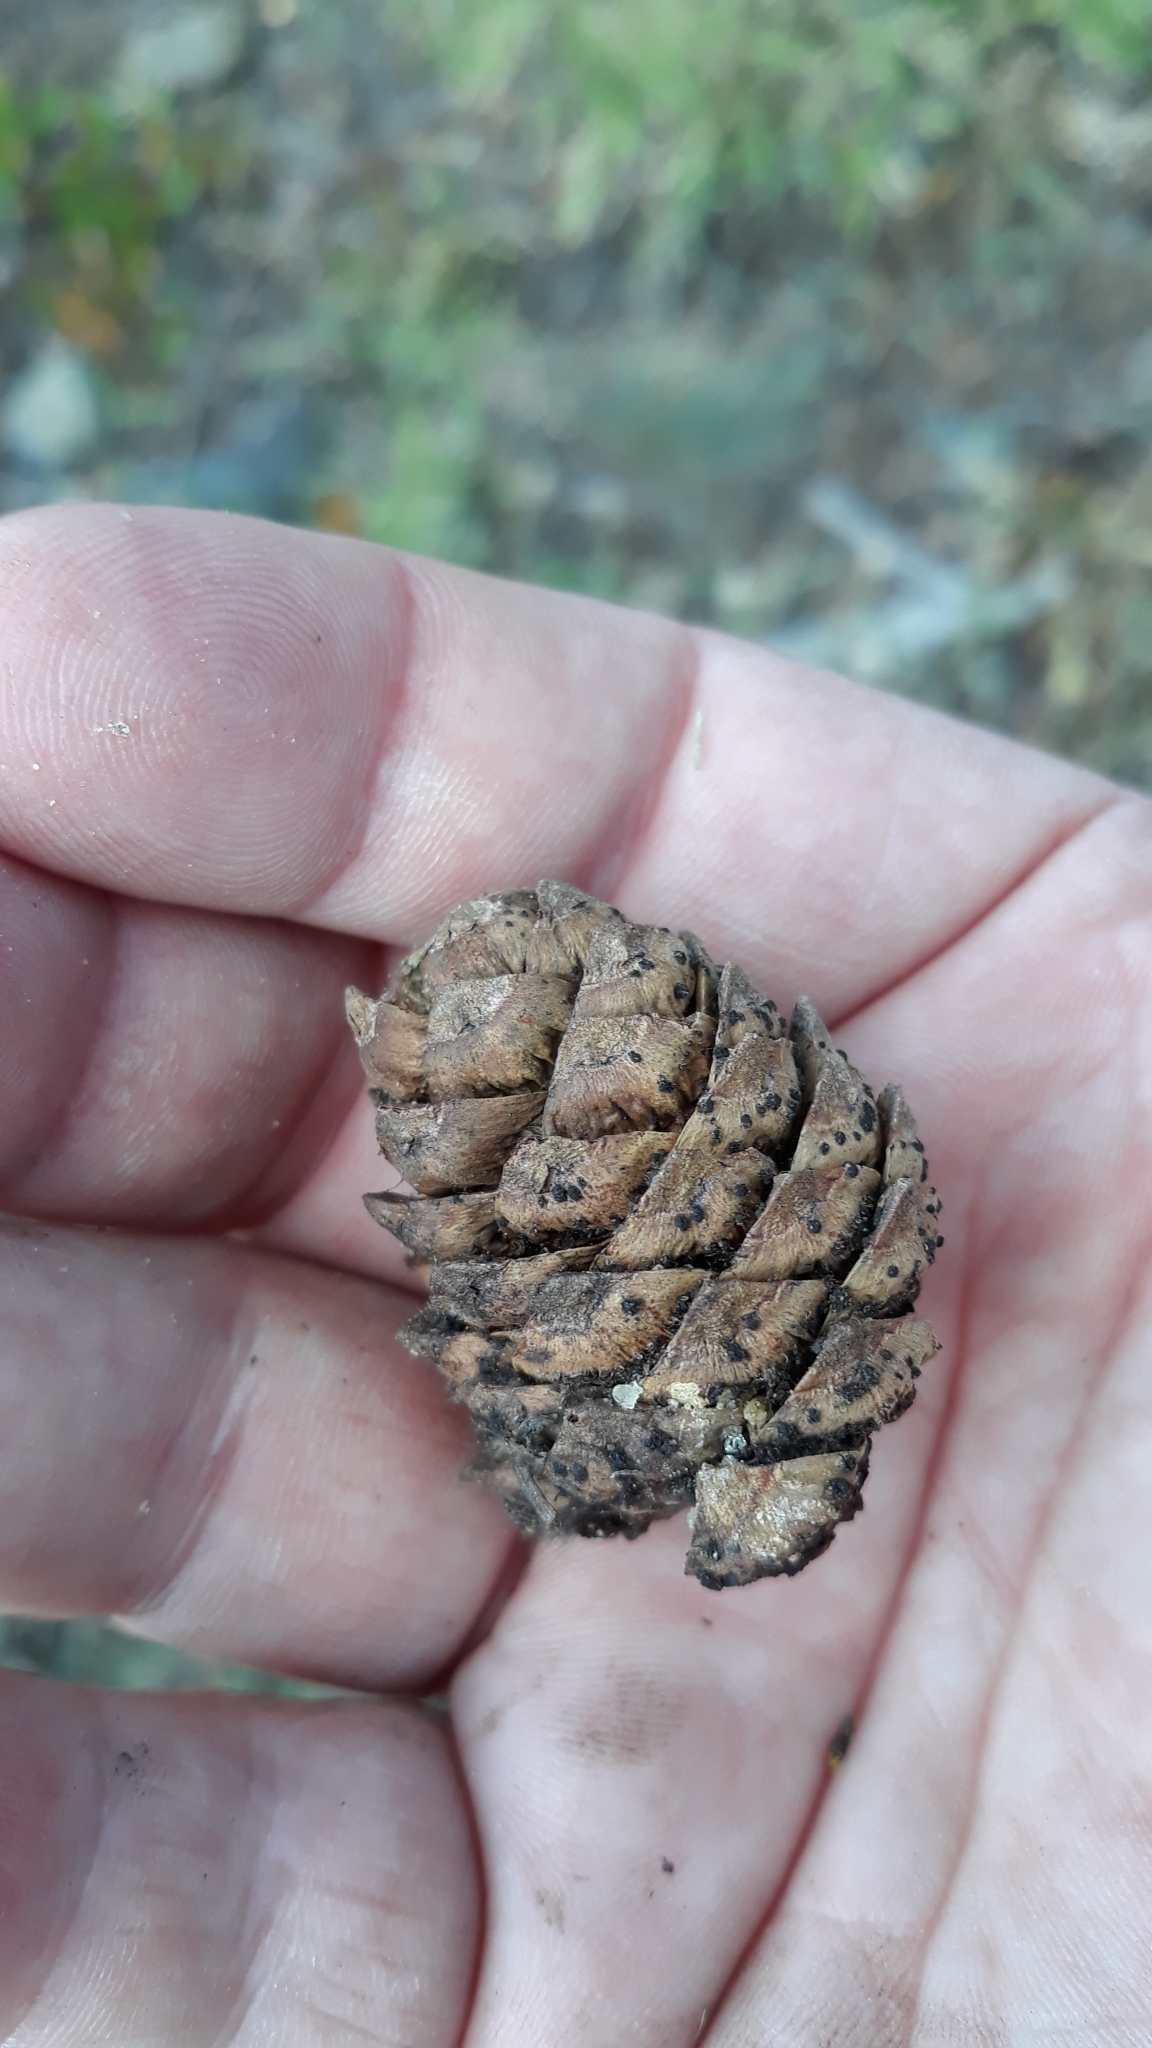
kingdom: Plantae
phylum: Tracheophyta
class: Pinopsida
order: Pinales
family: Pinaceae
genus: Pinus
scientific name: Pinus albicaulis
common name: Whitebark pine
